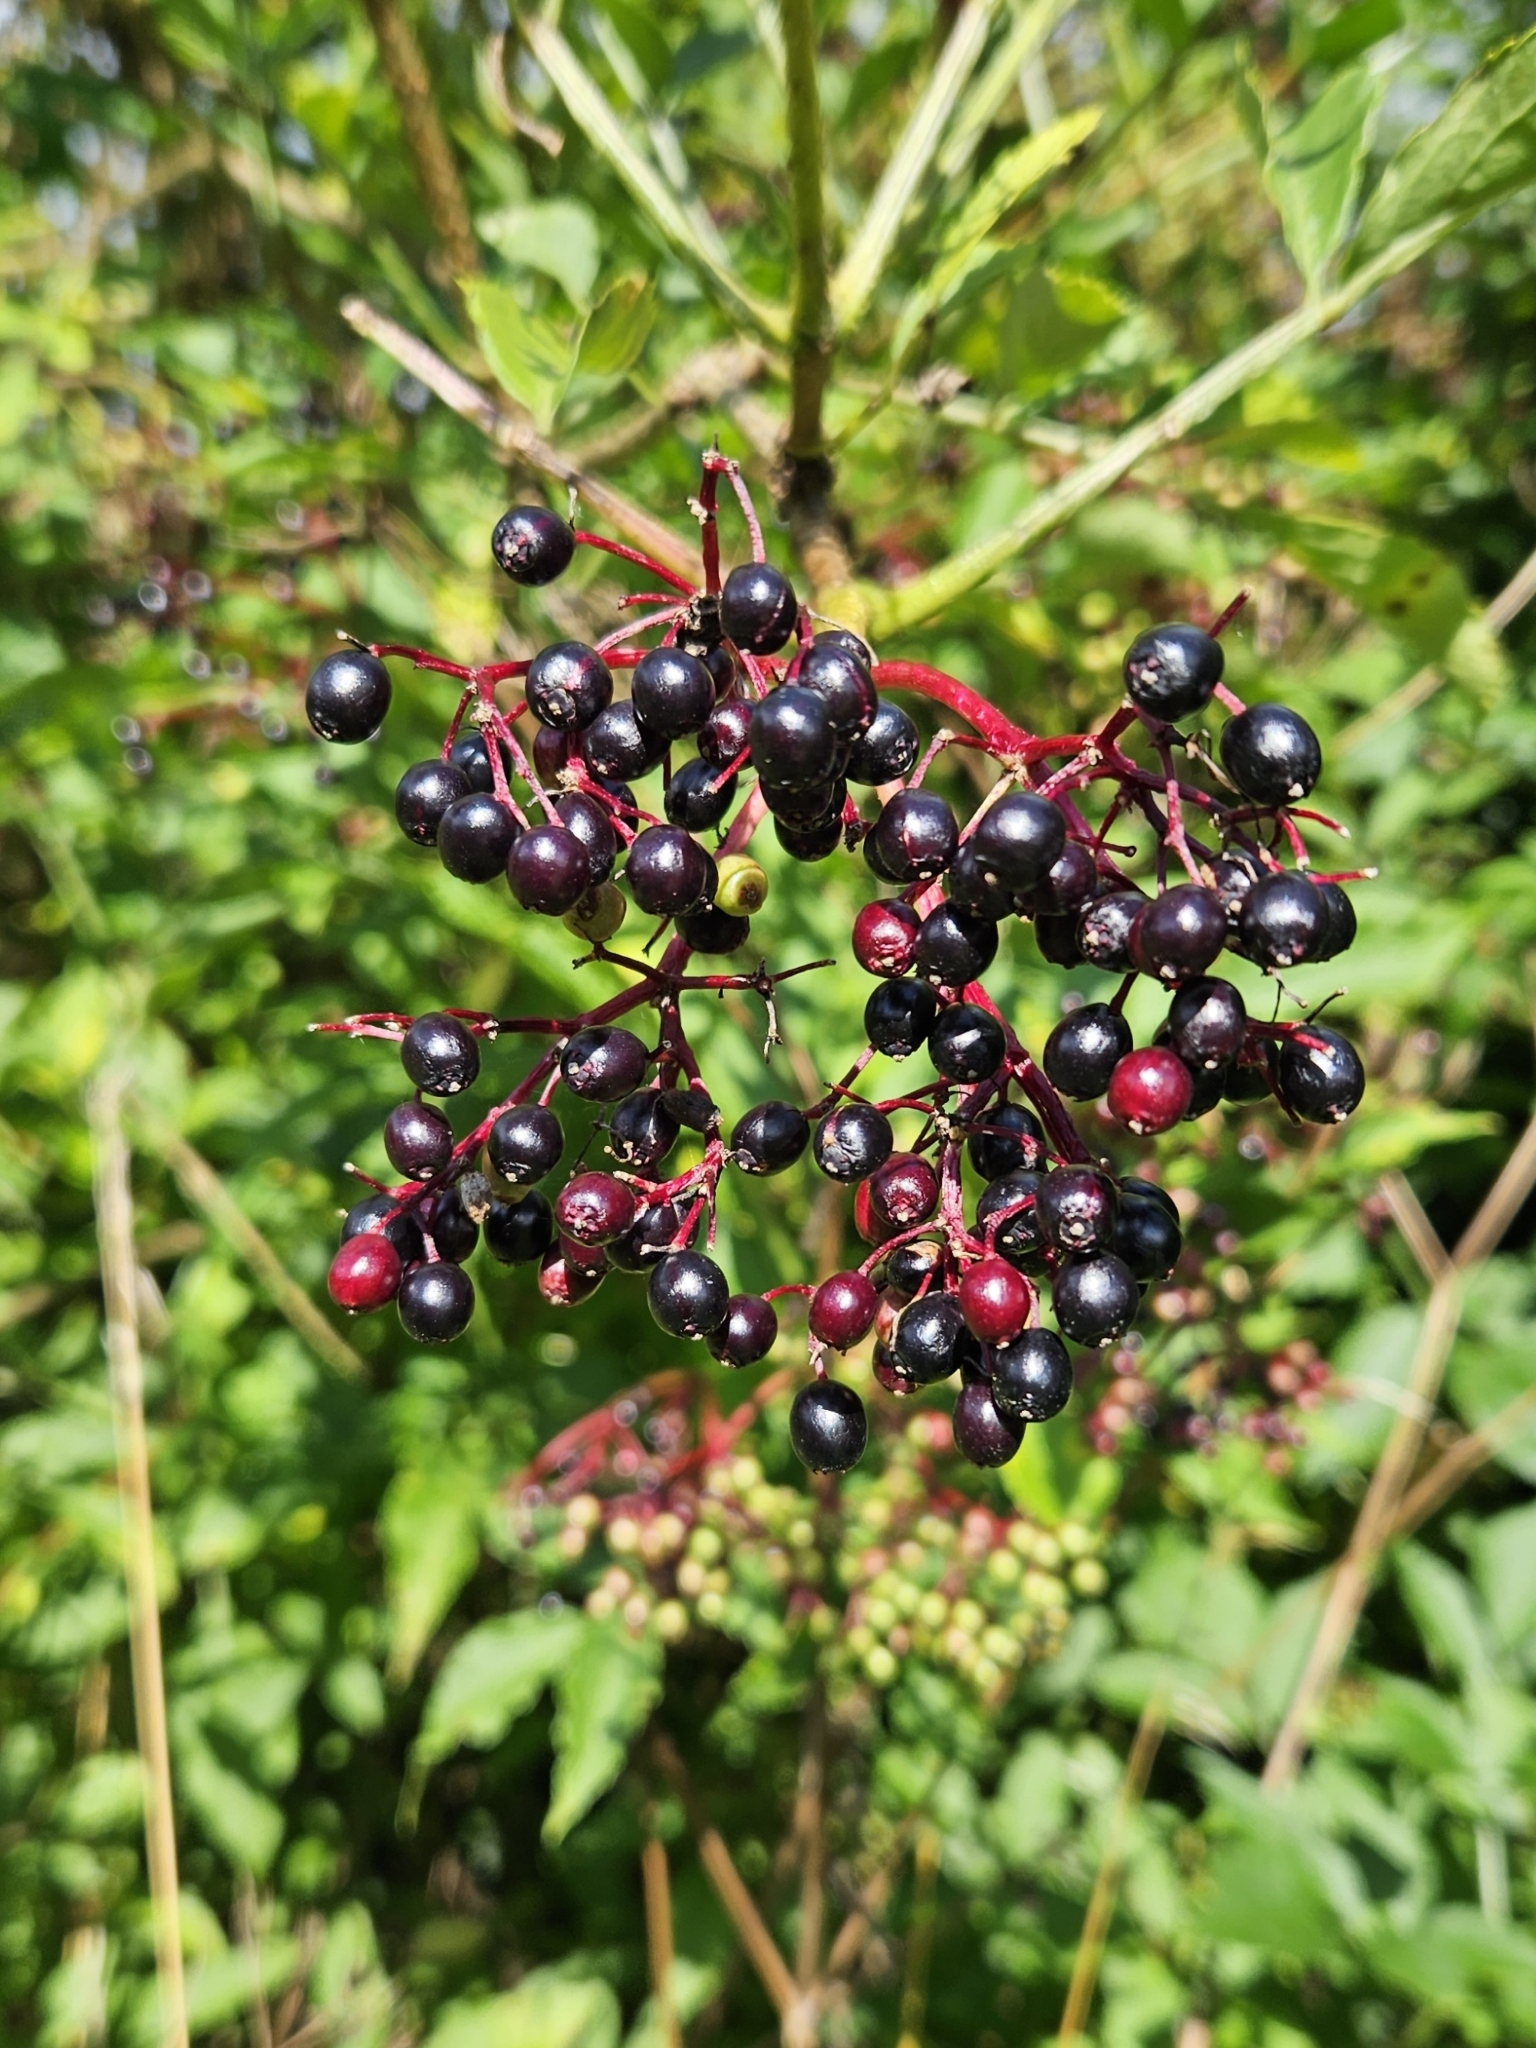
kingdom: Plantae
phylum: Tracheophyta
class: Magnoliopsida
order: Dipsacales
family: Viburnaceae
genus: Sambucus
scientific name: Sambucus nigra
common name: Elder
